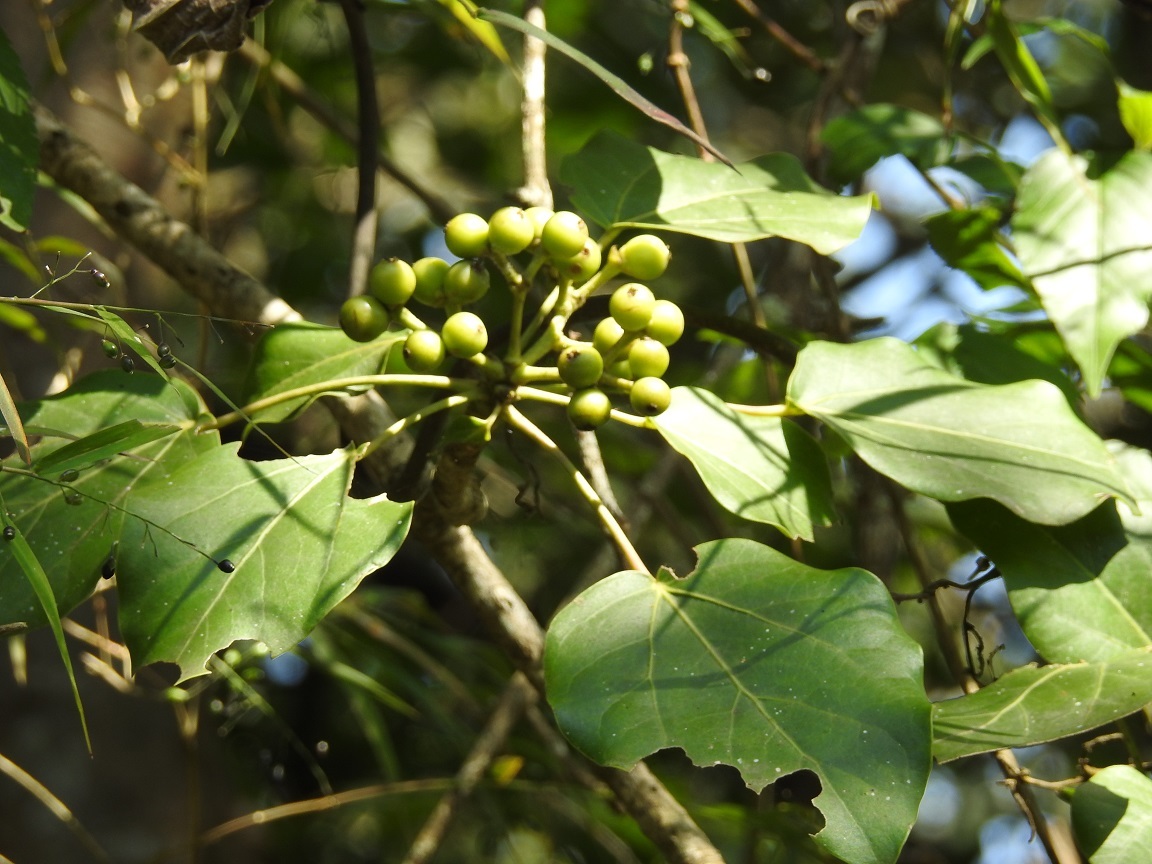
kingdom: Plantae
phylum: Tracheophyta
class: Magnoliopsida
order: Apiales
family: Araliaceae
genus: Oreopanax
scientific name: Oreopanax capitatus
